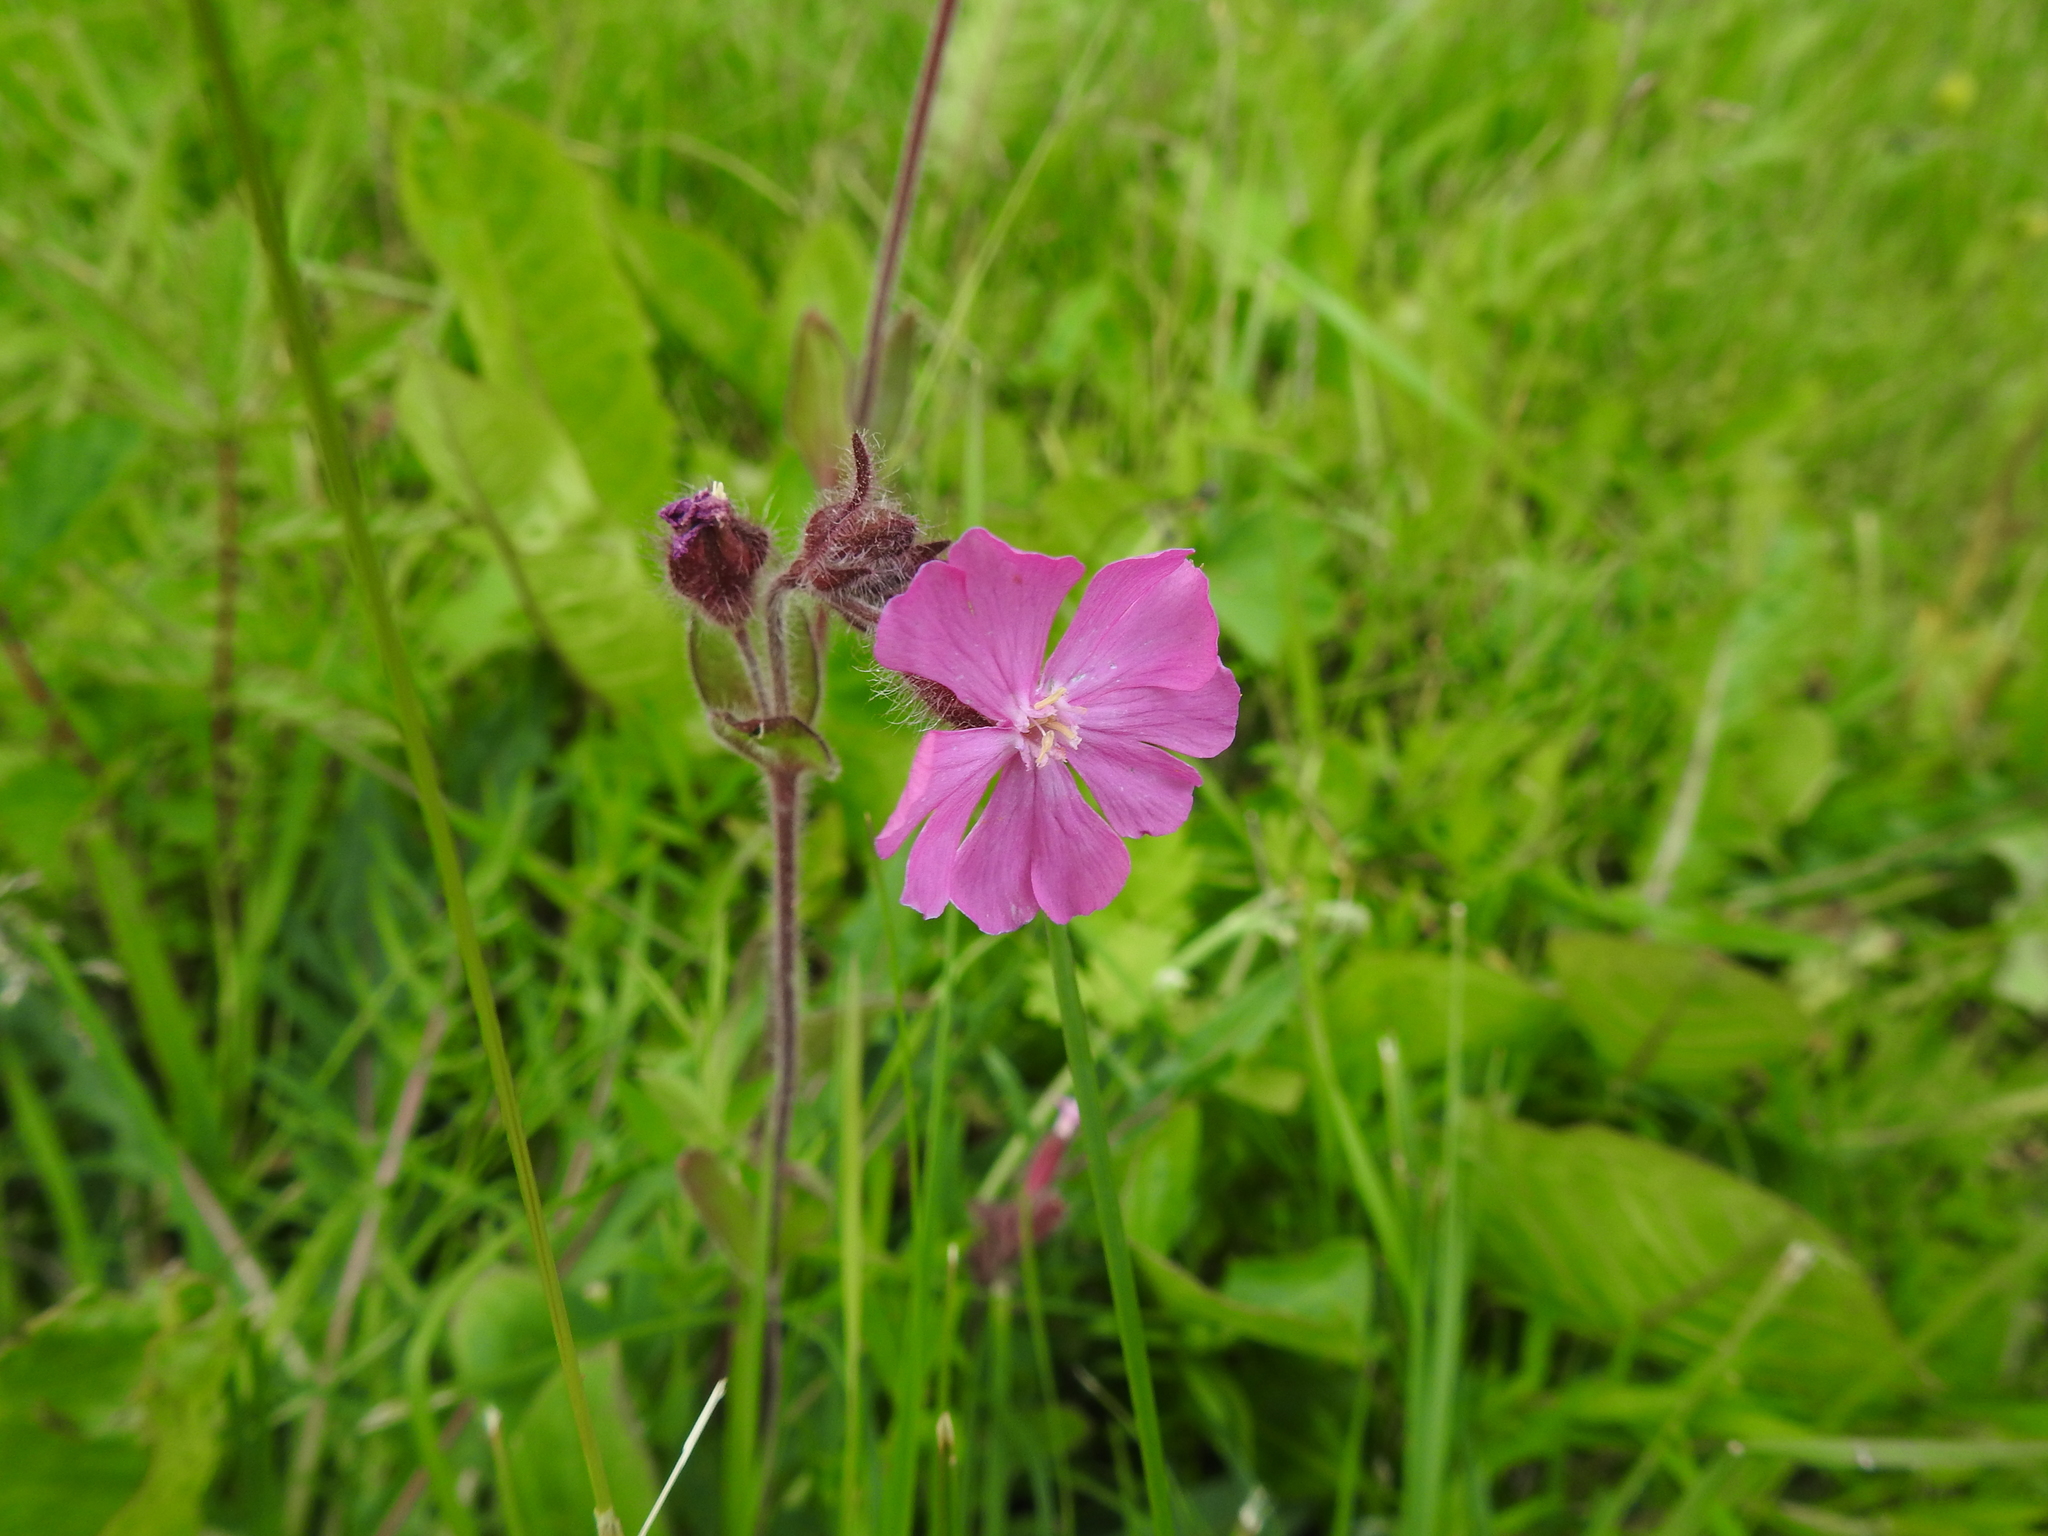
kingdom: Plantae
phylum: Tracheophyta
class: Magnoliopsida
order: Caryophyllales
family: Caryophyllaceae
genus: Silene
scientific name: Silene dioica
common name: Red campion
